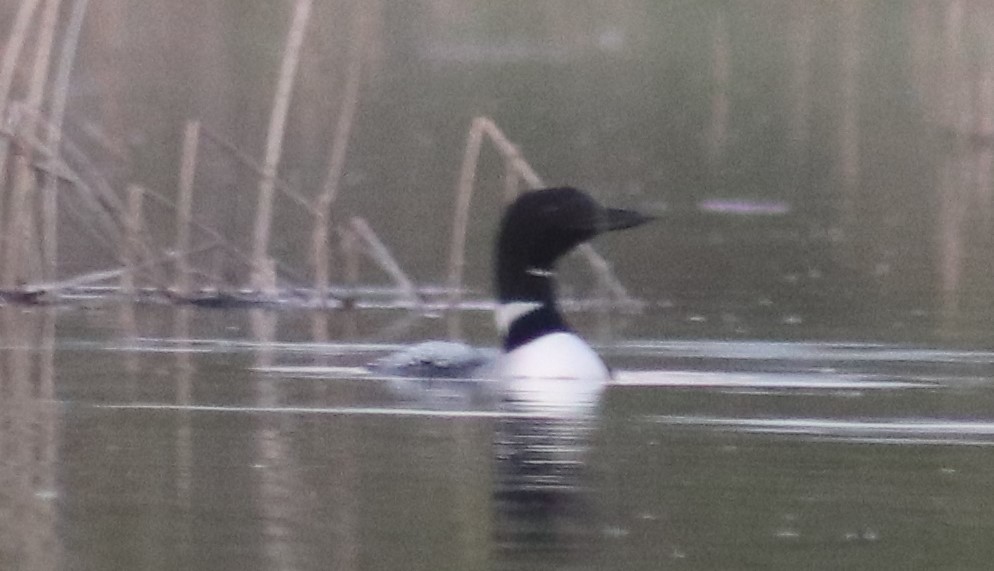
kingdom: Animalia
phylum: Chordata
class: Aves
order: Gaviiformes
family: Gaviidae
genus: Gavia
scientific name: Gavia immer
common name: Common loon
